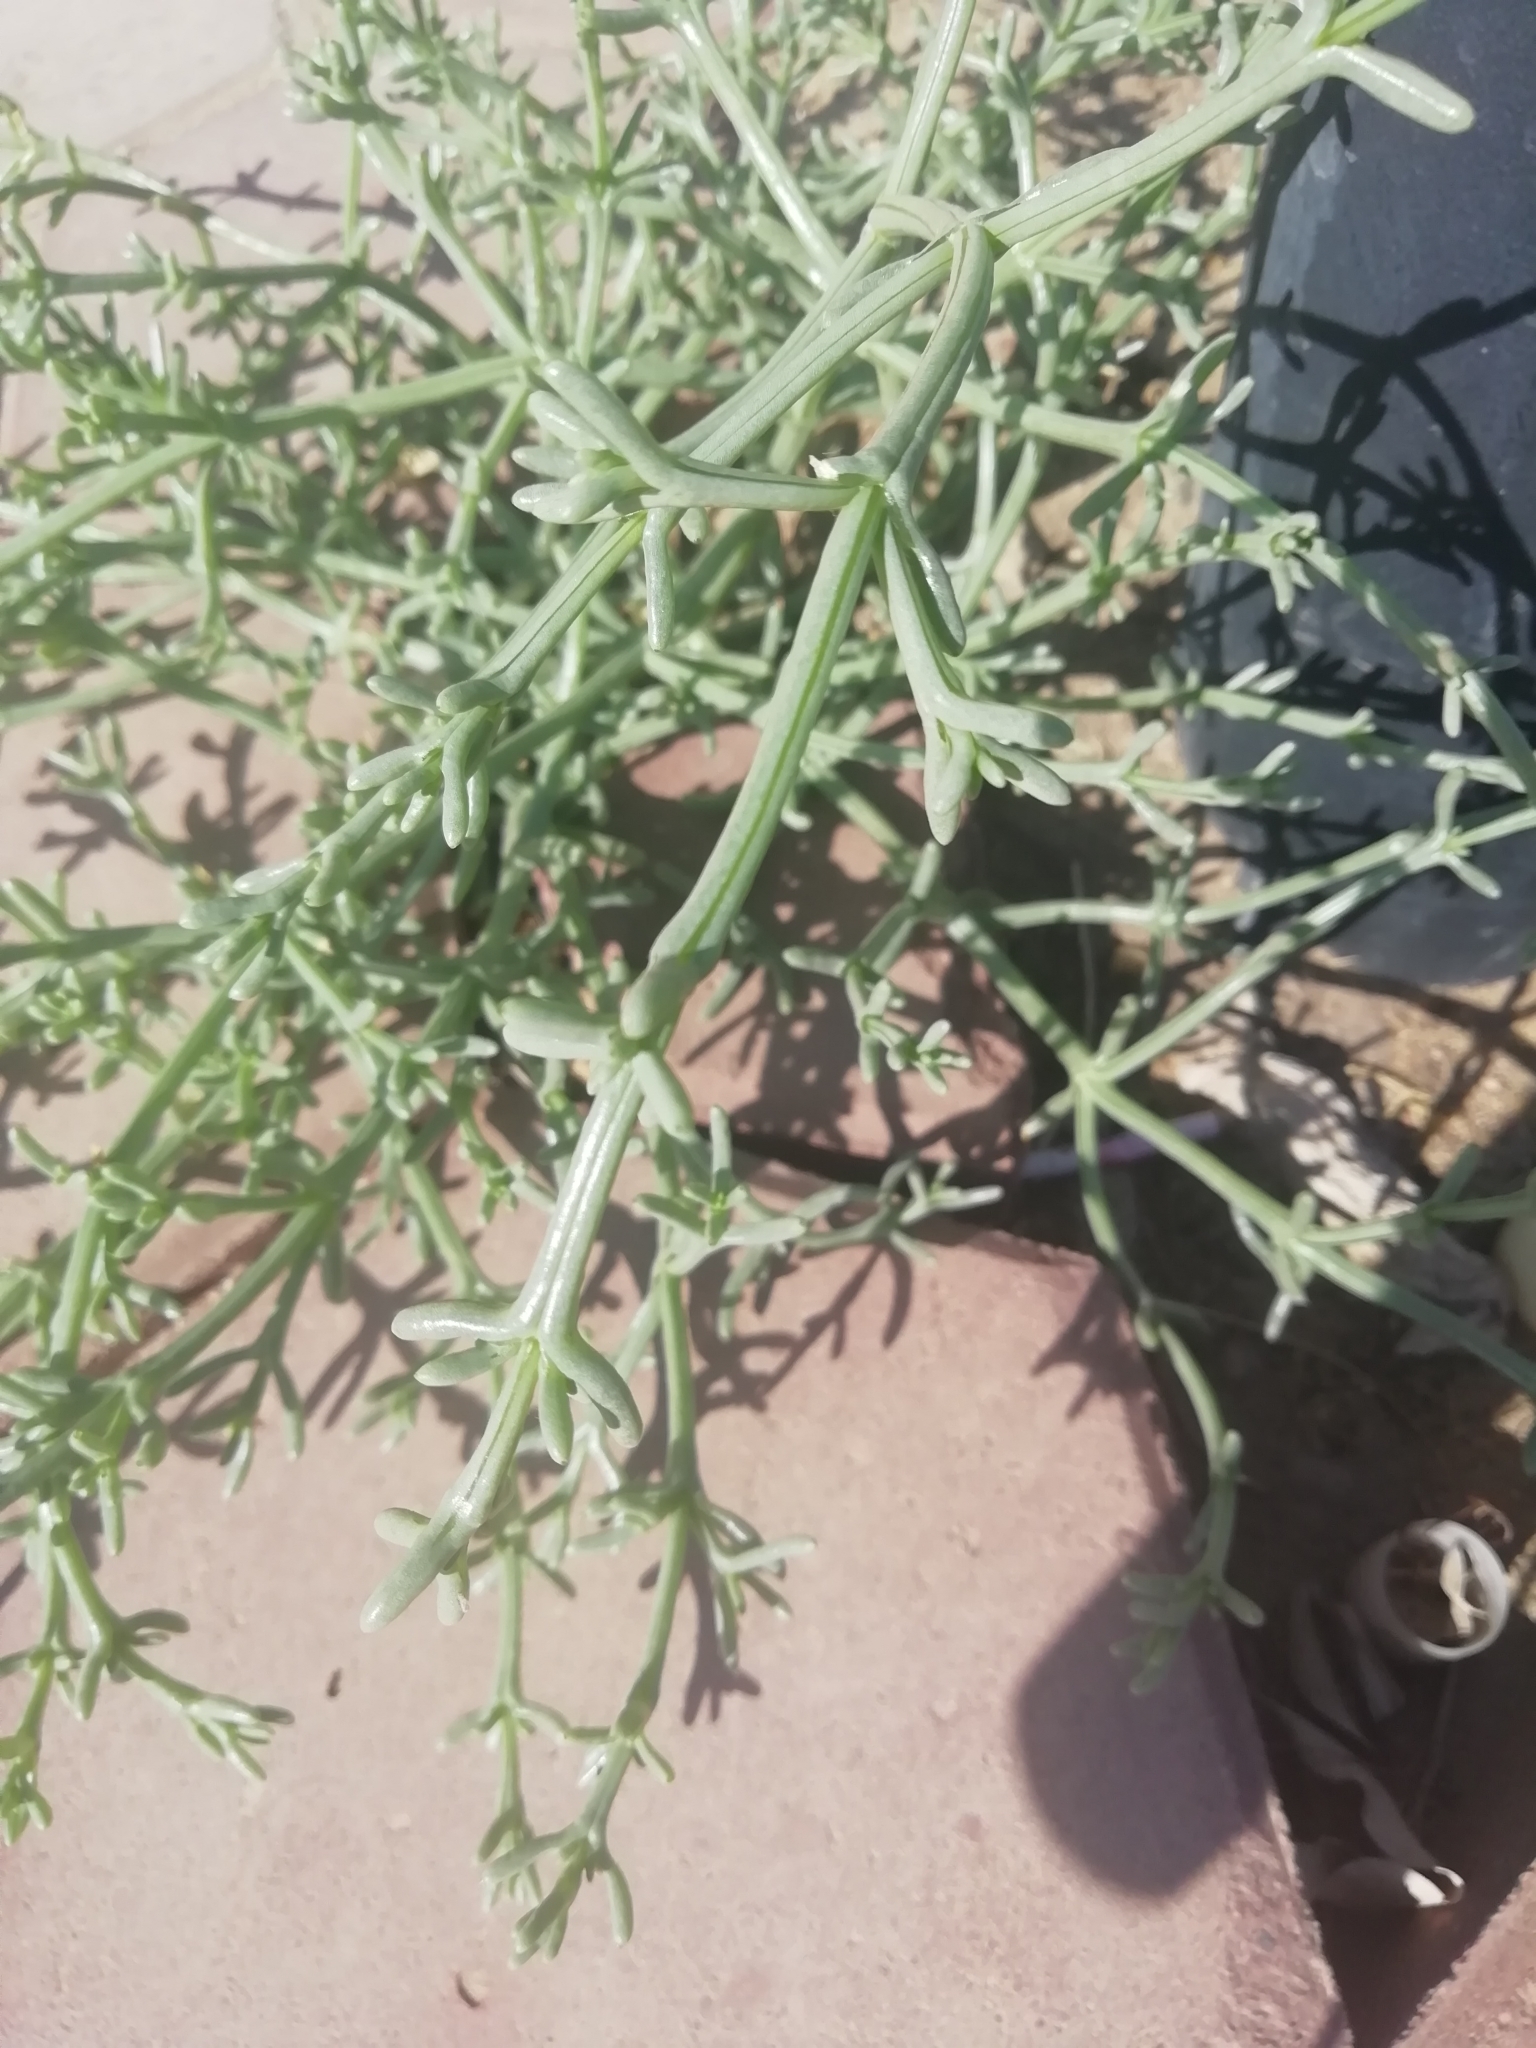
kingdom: Plantae
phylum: Tracheophyta
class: Magnoliopsida
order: Caryophyllales
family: Amaranthaceae
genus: Anabasis
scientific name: Anabasis setifera
